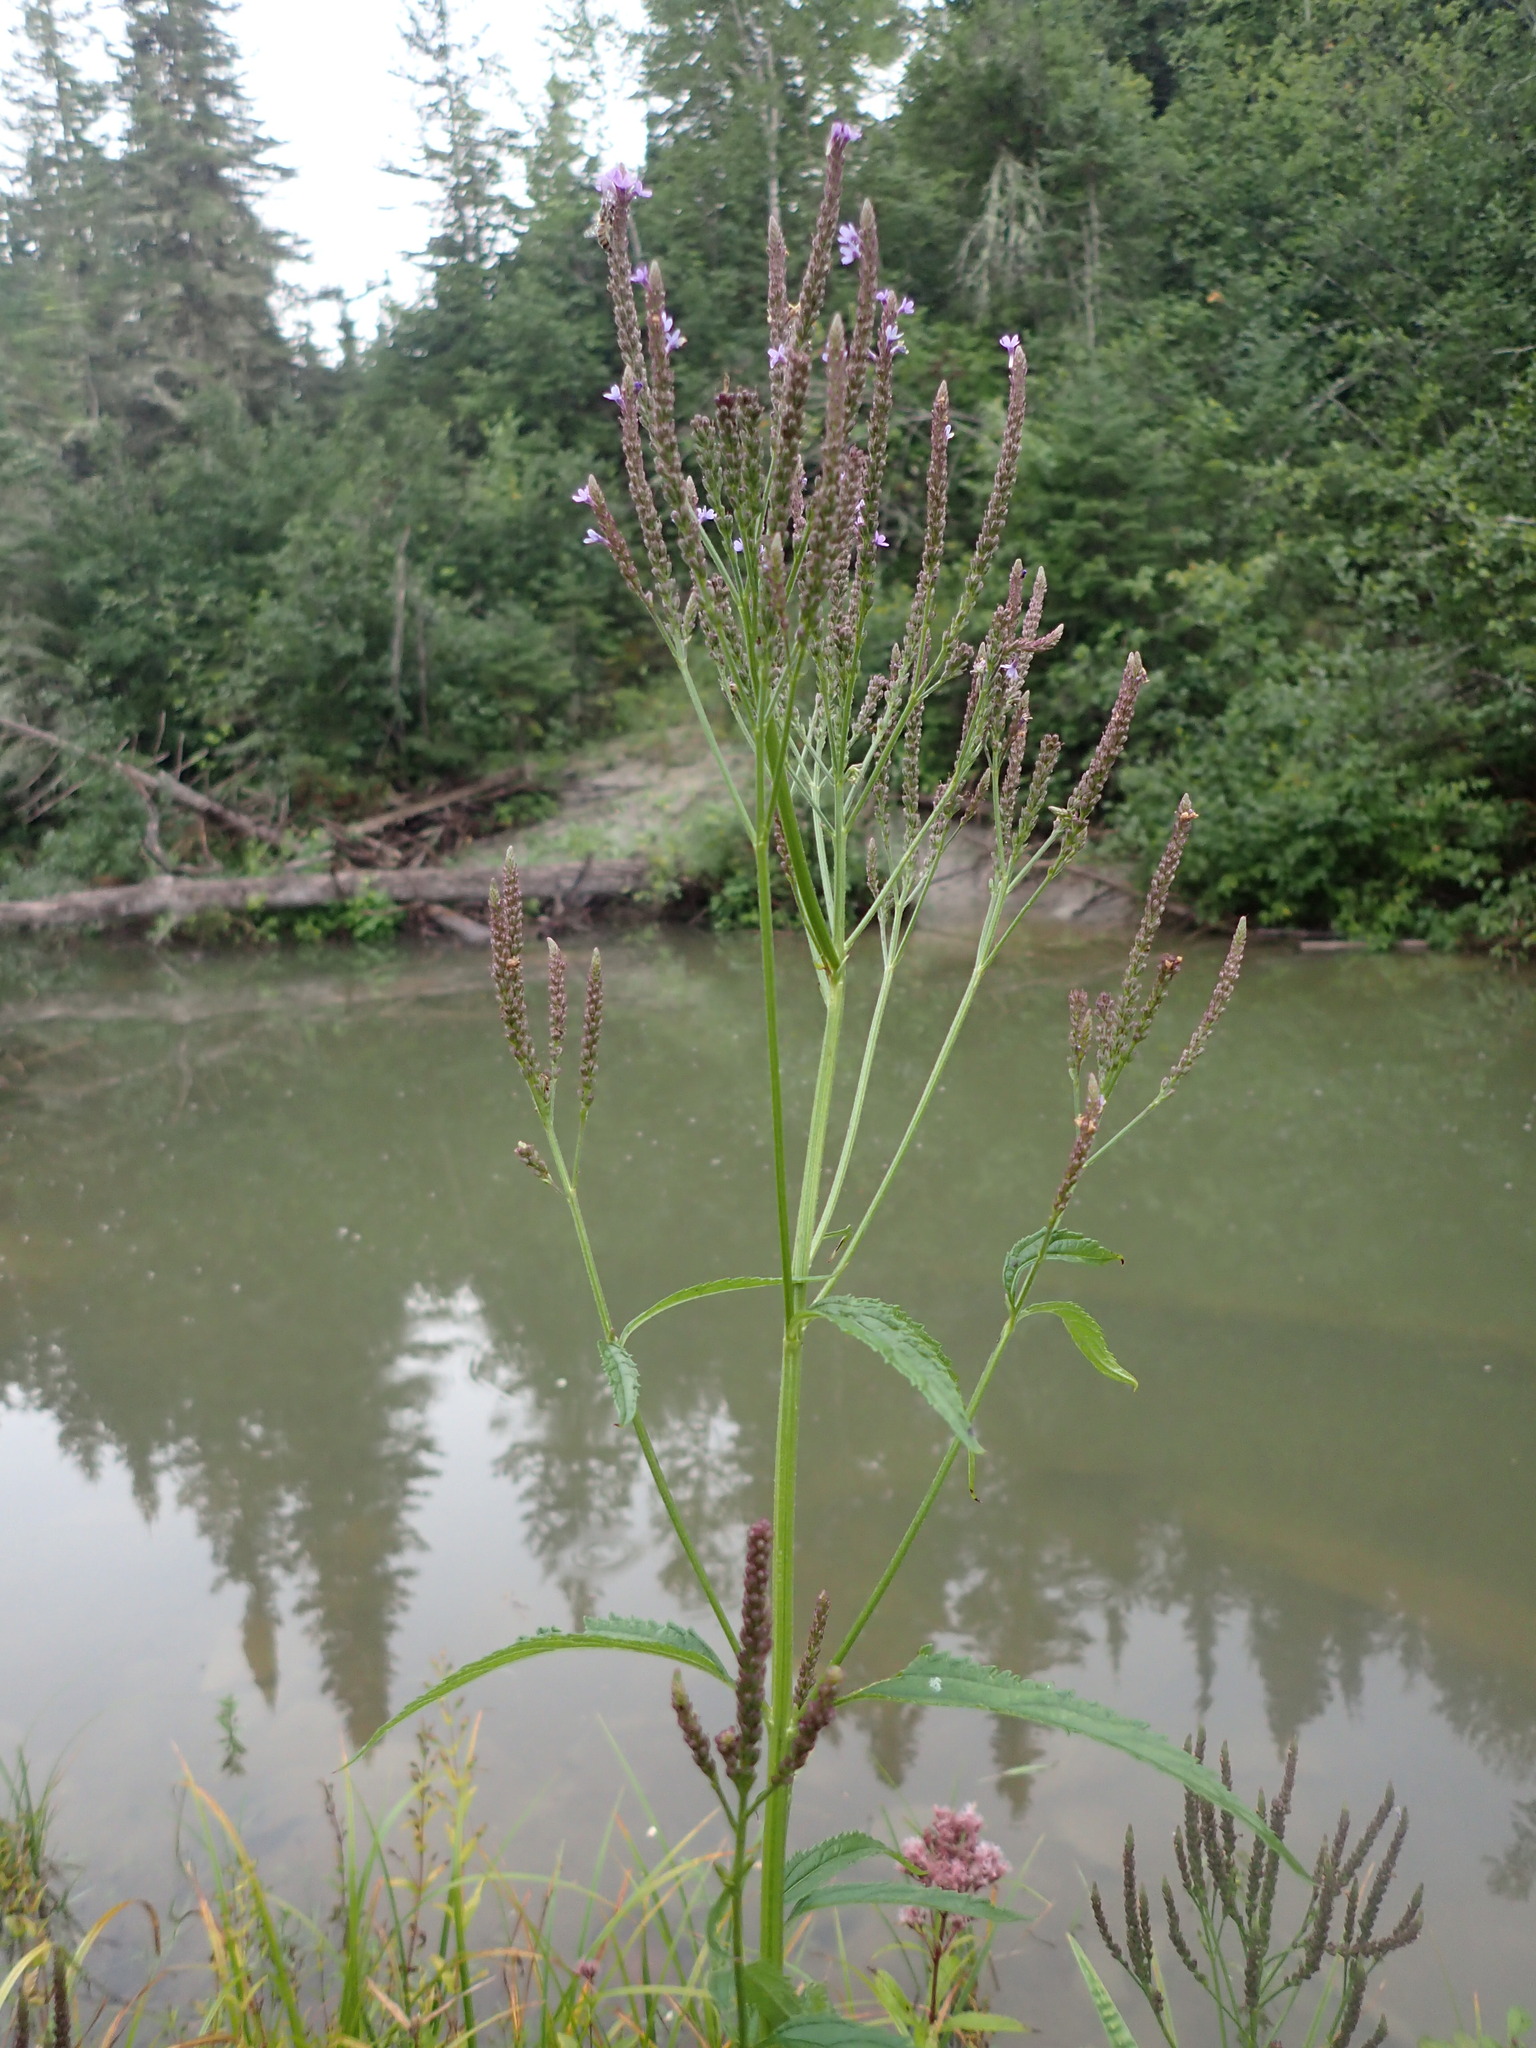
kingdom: Plantae
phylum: Tracheophyta
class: Magnoliopsida
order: Lamiales
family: Verbenaceae
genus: Verbena
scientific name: Verbena hastata
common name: American blue vervain
